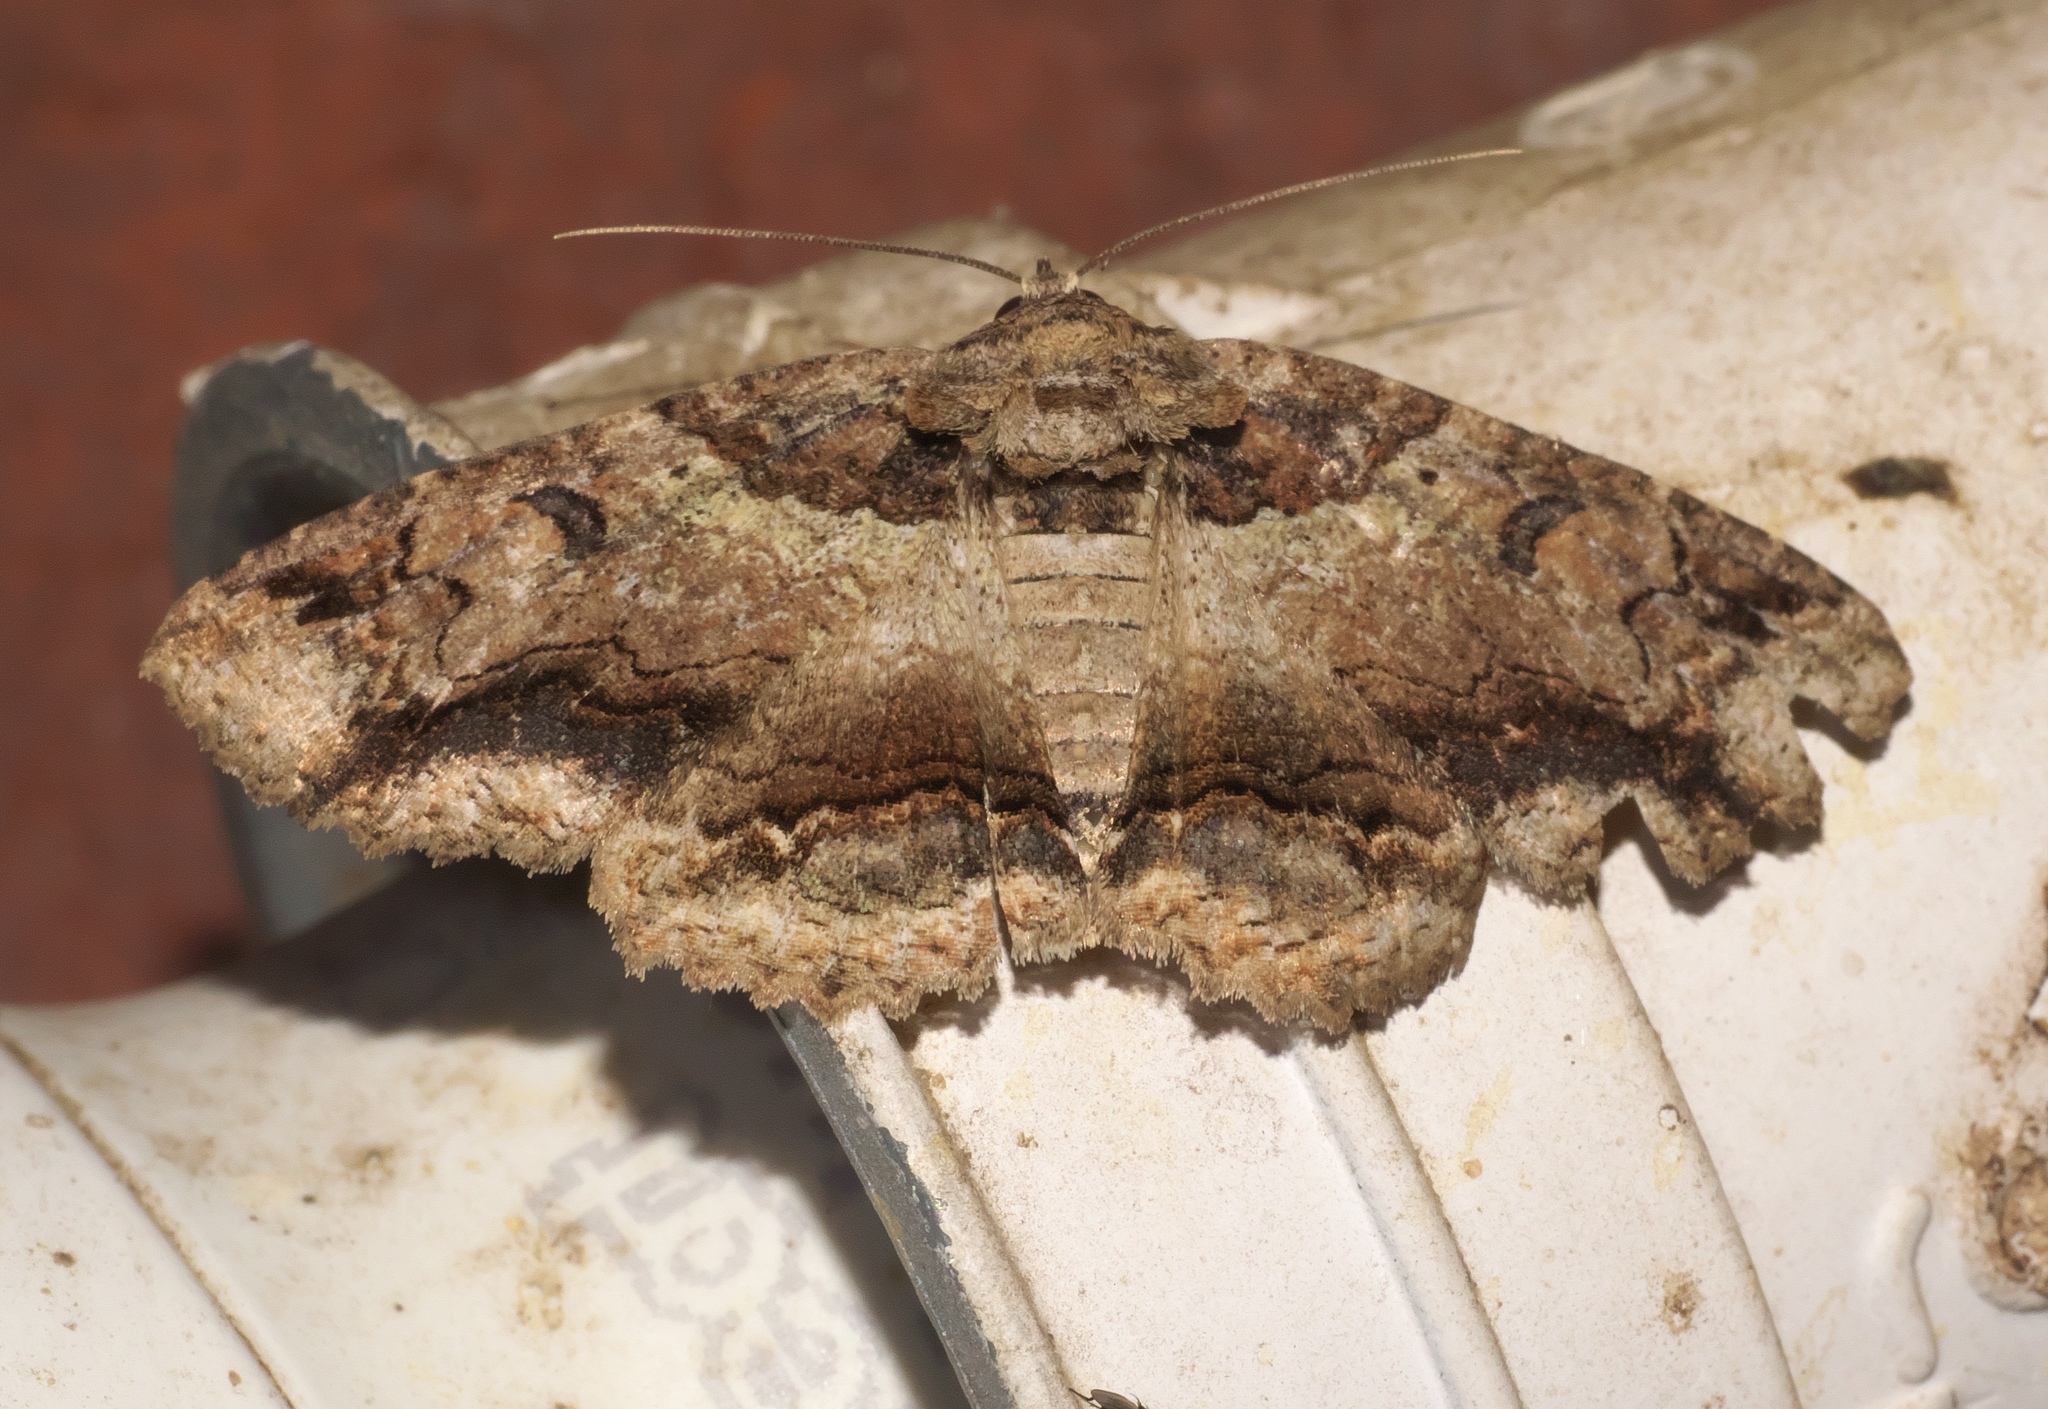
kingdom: Animalia
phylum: Arthropoda
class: Insecta
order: Lepidoptera
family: Erebidae
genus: Zale
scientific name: Zale galbanata
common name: Maple zale
